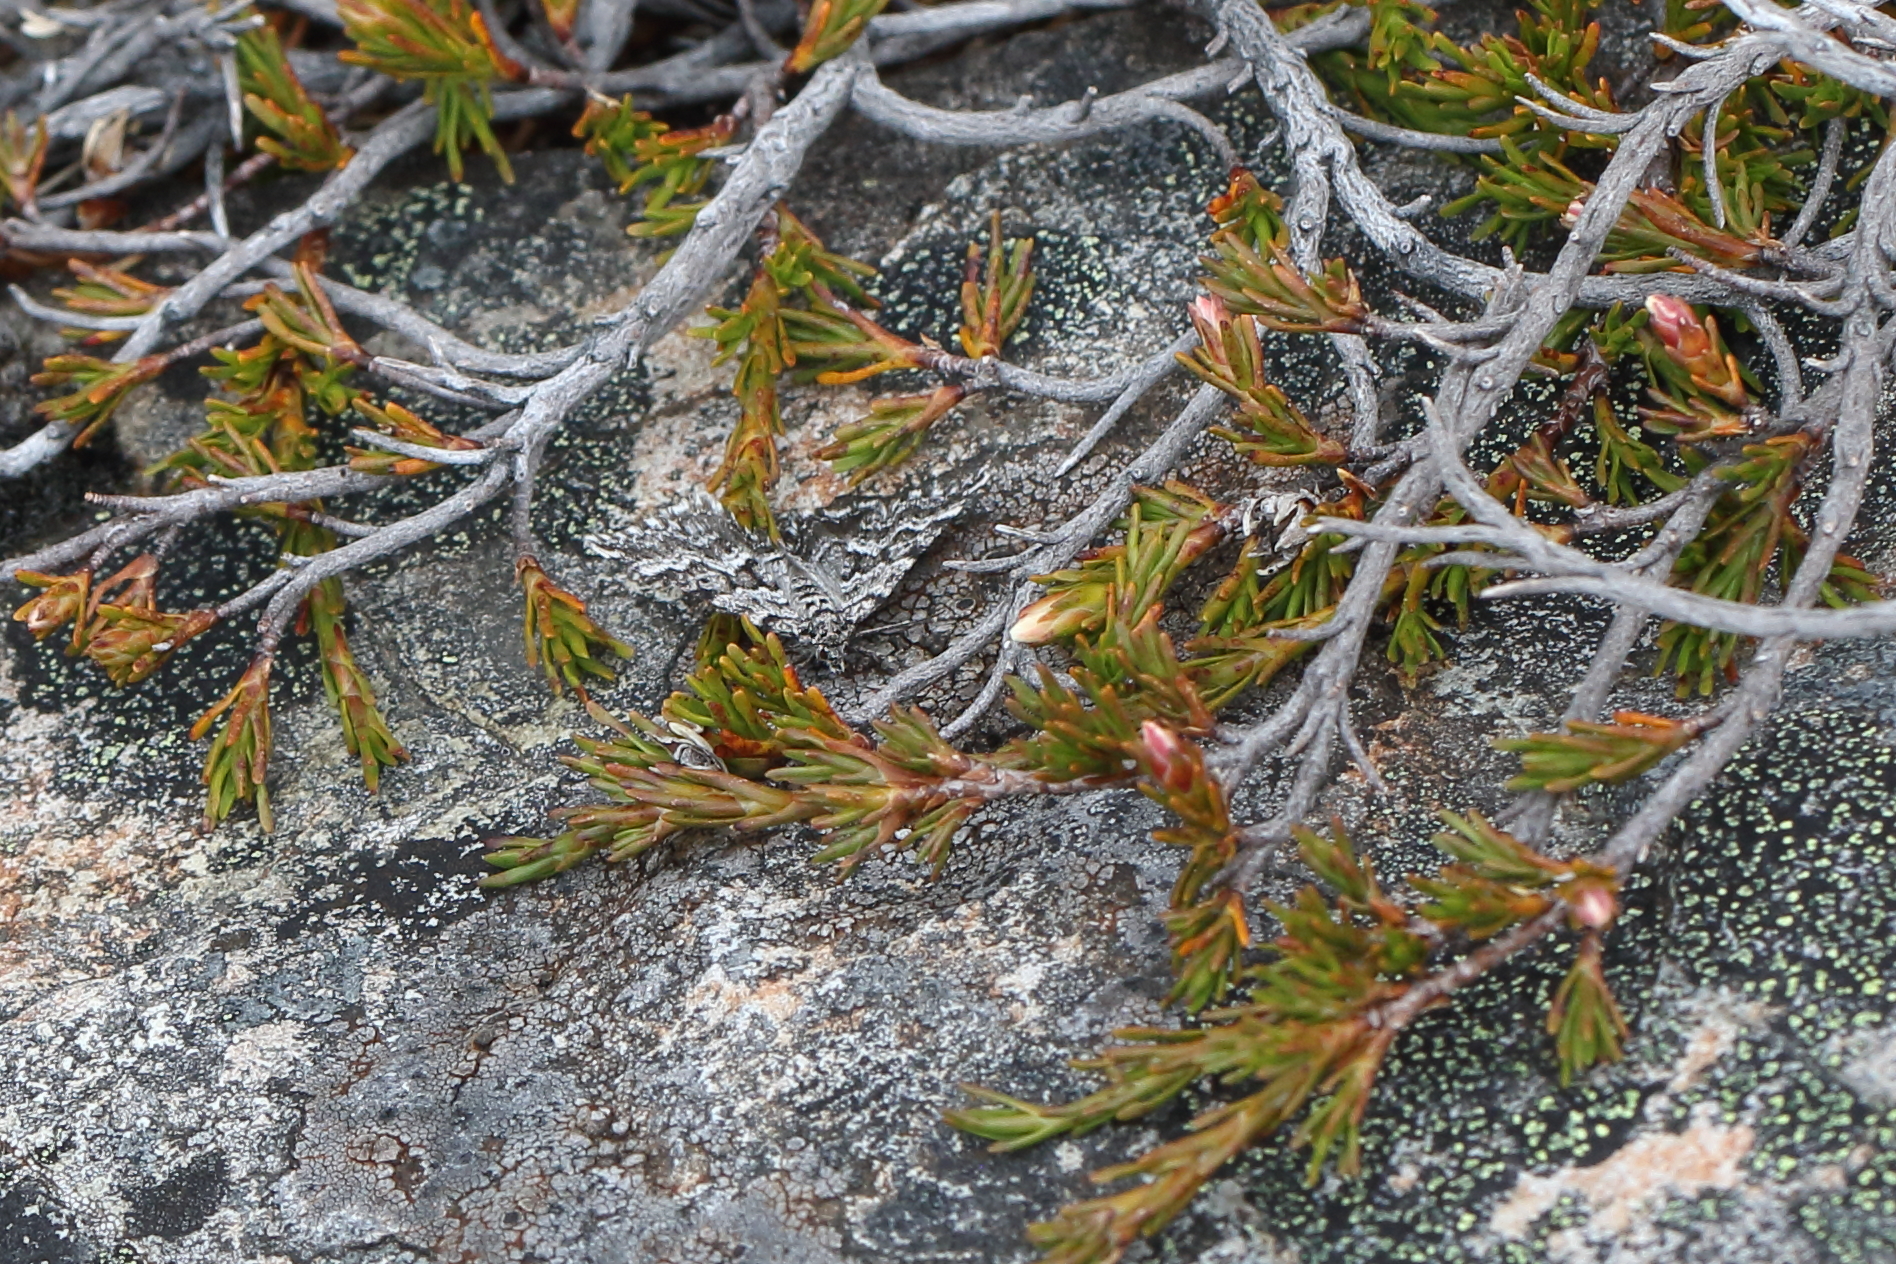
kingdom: Animalia
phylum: Arthropoda
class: Insecta
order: Lepidoptera
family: Geometridae
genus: Aponotoreas
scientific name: Aponotoreas anthracias
